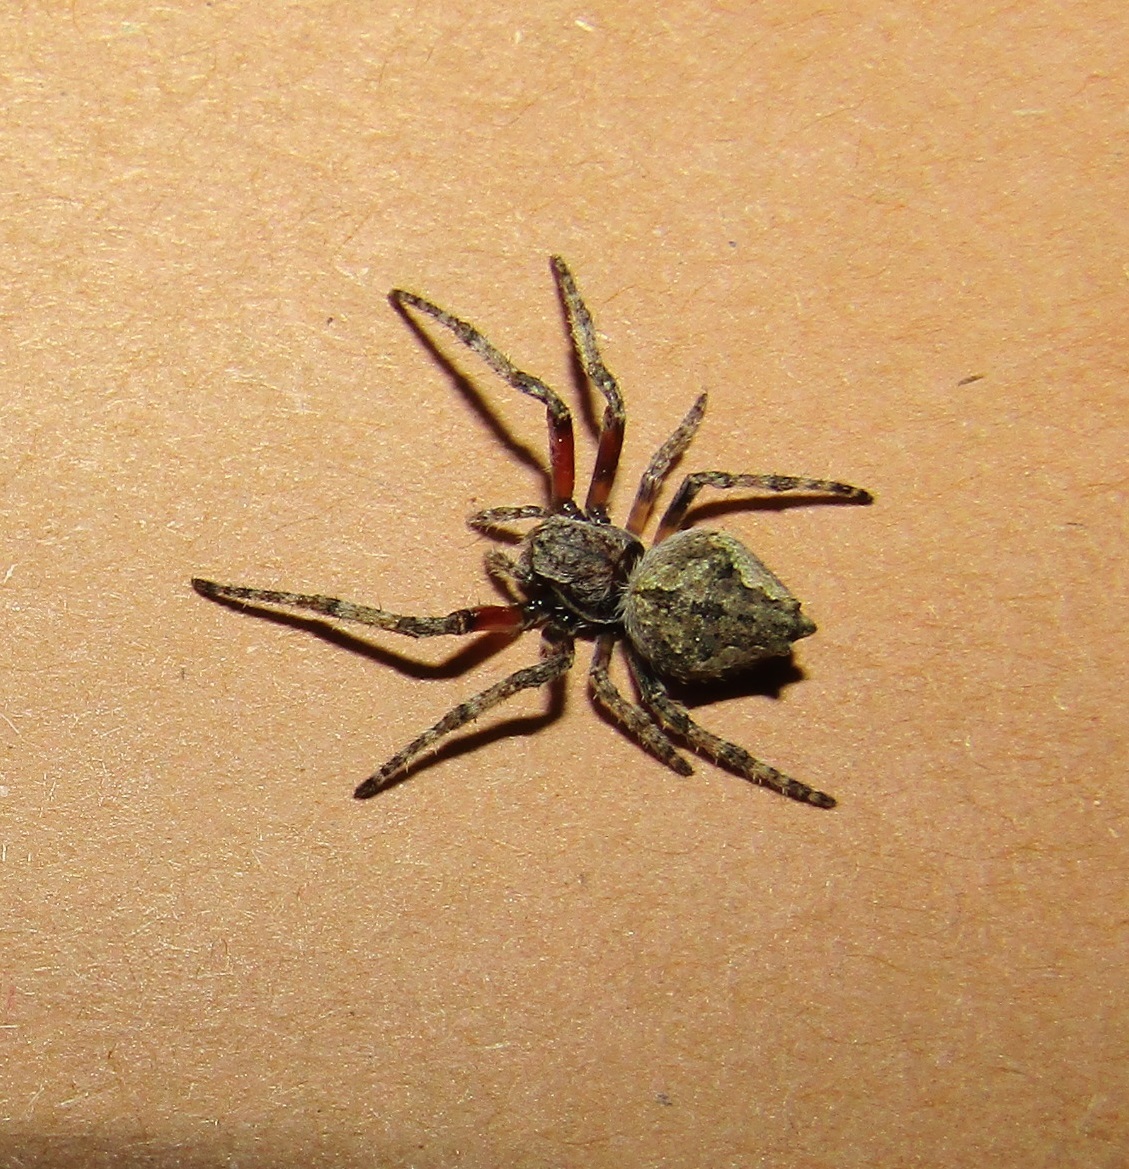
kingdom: Animalia
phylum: Arthropoda
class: Arachnida
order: Araneae
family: Araneidae
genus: Eriophora
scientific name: Eriophora pustulosa
